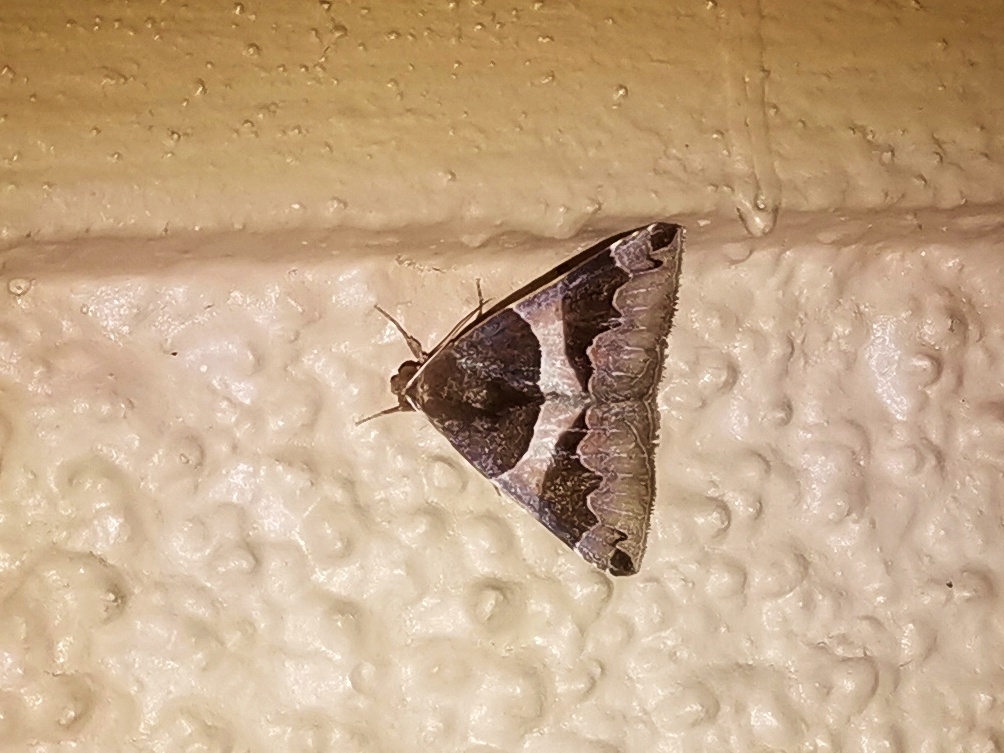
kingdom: Animalia
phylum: Arthropoda
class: Insecta
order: Lepidoptera
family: Erebidae
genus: Bastilla
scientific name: Bastilla
